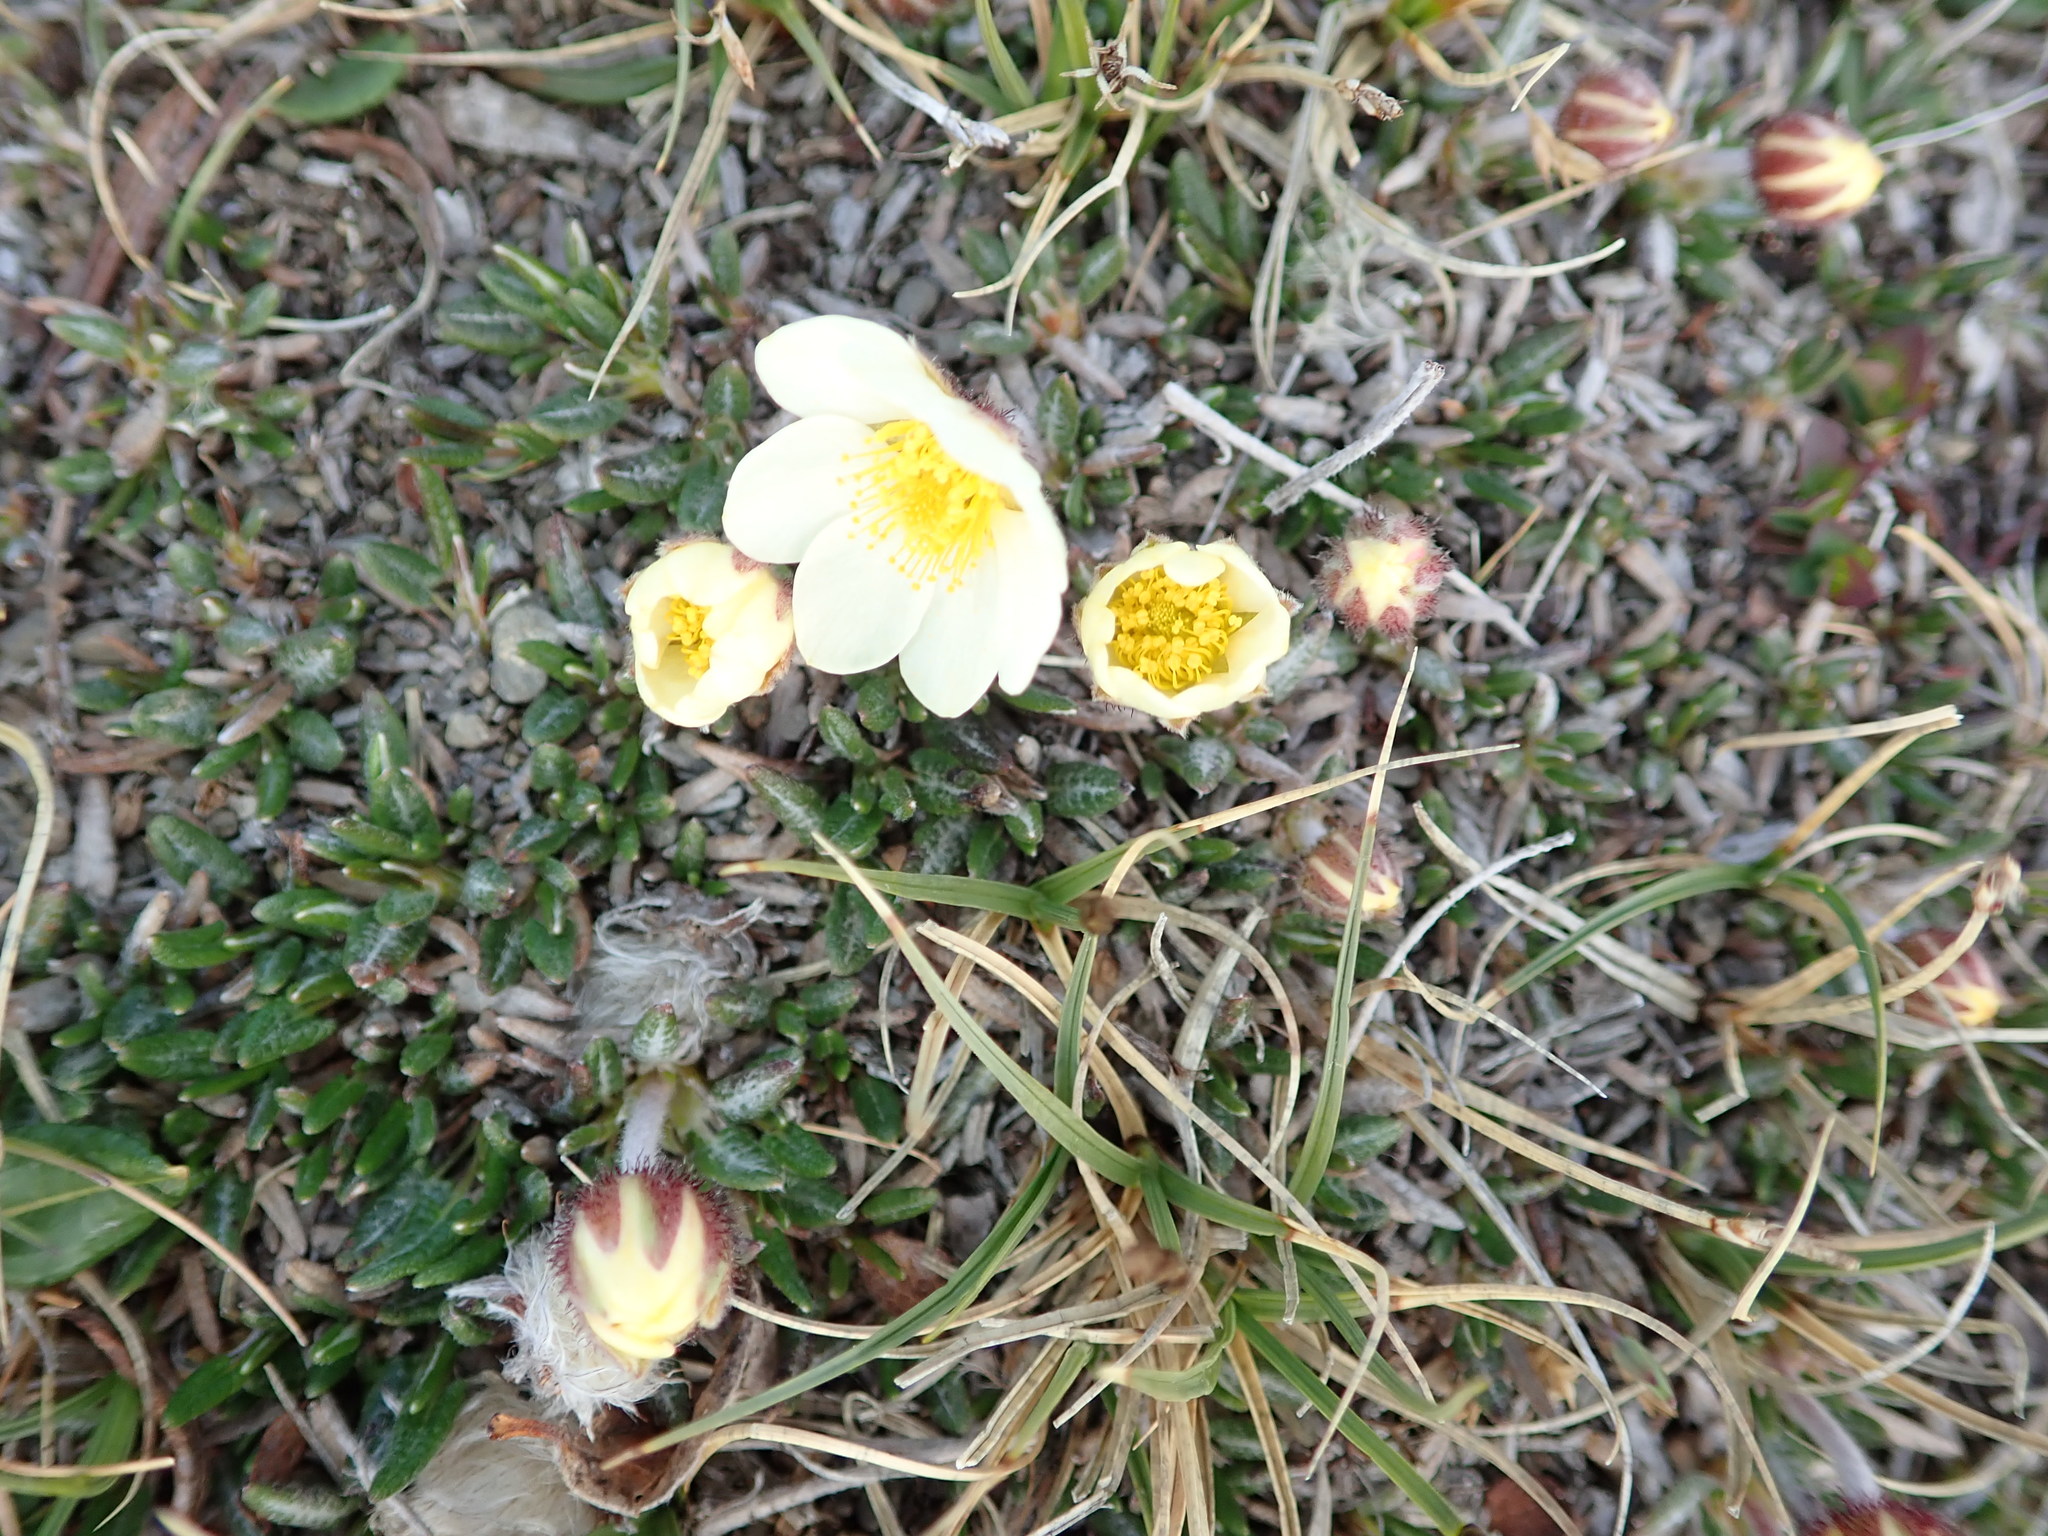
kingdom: Plantae
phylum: Tracheophyta
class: Magnoliopsida
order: Rosales
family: Rosaceae
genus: Dryas
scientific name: Dryas integrifolia
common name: Entire-leaved mountain avens
